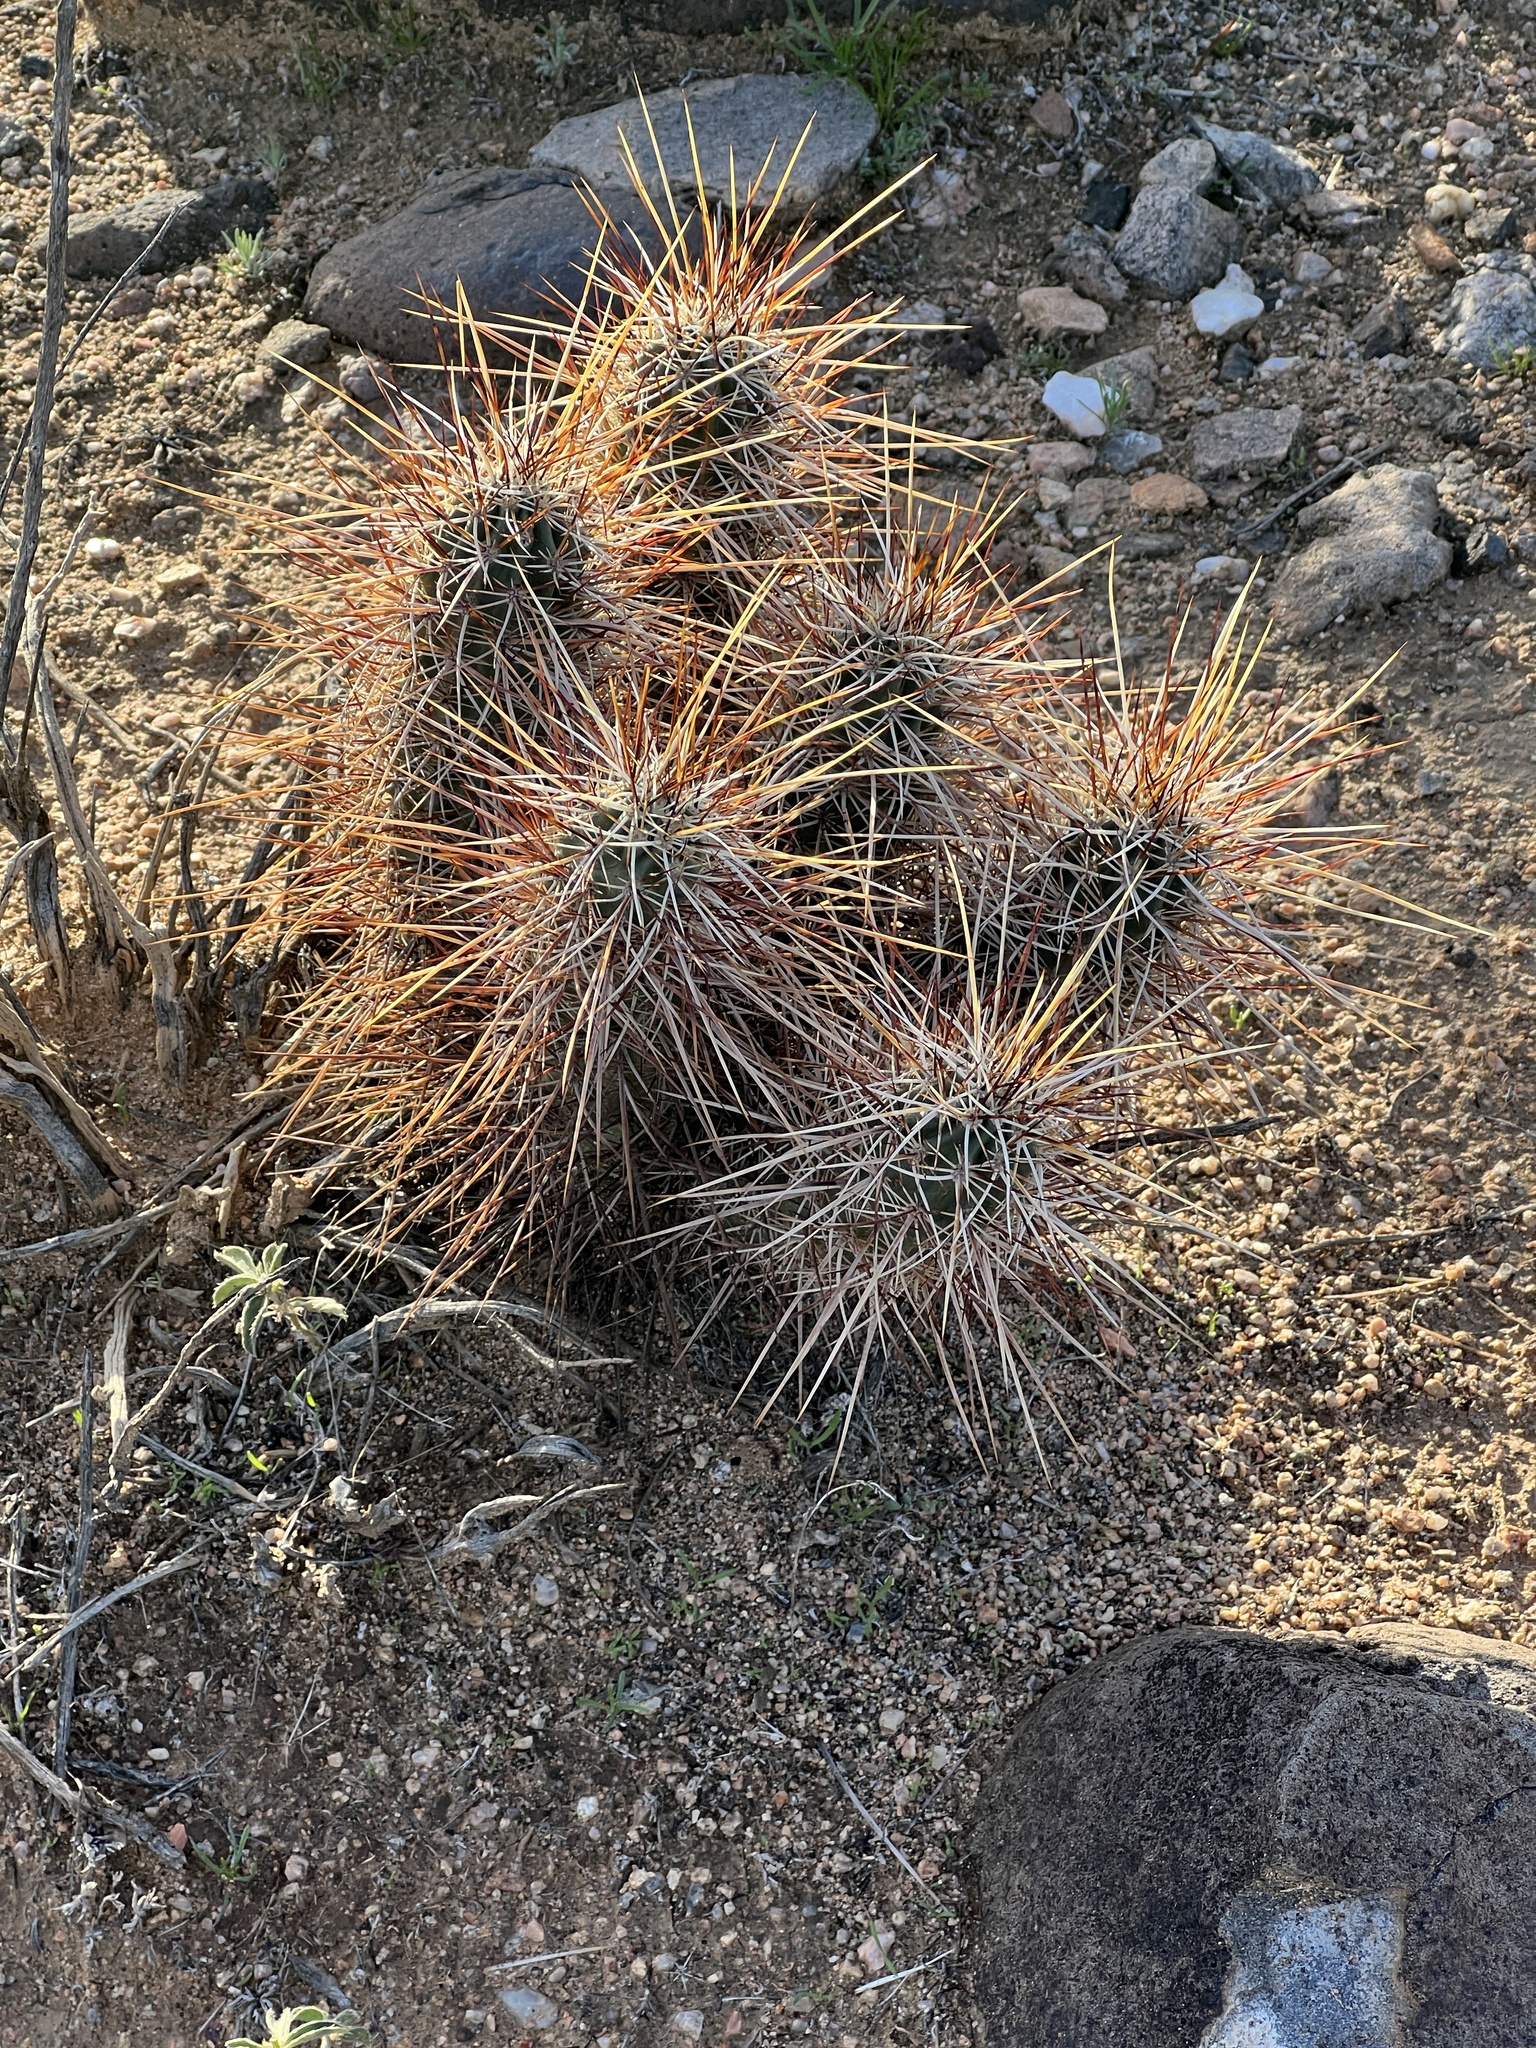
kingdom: Plantae
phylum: Tracheophyta
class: Magnoliopsida
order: Caryophyllales
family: Cactaceae
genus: Echinocereus
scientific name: Echinocereus engelmannii
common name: Engelmann's hedgehog cactus
